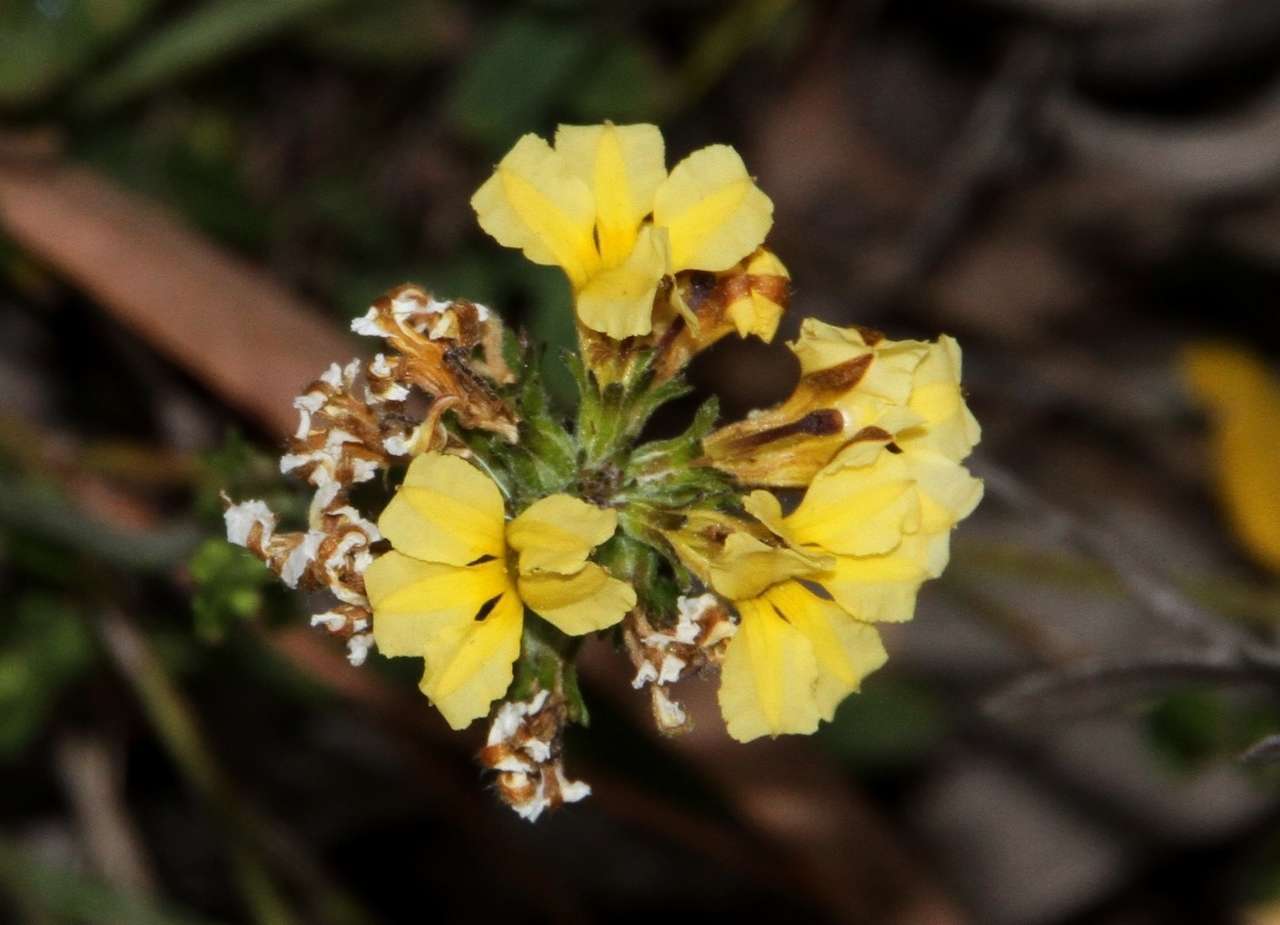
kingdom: Plantae
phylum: Tracheophyta
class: Magnoliopsida
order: Asterales
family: Goodeniaceae
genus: Goodenia
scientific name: Goodenia bellidifolia
